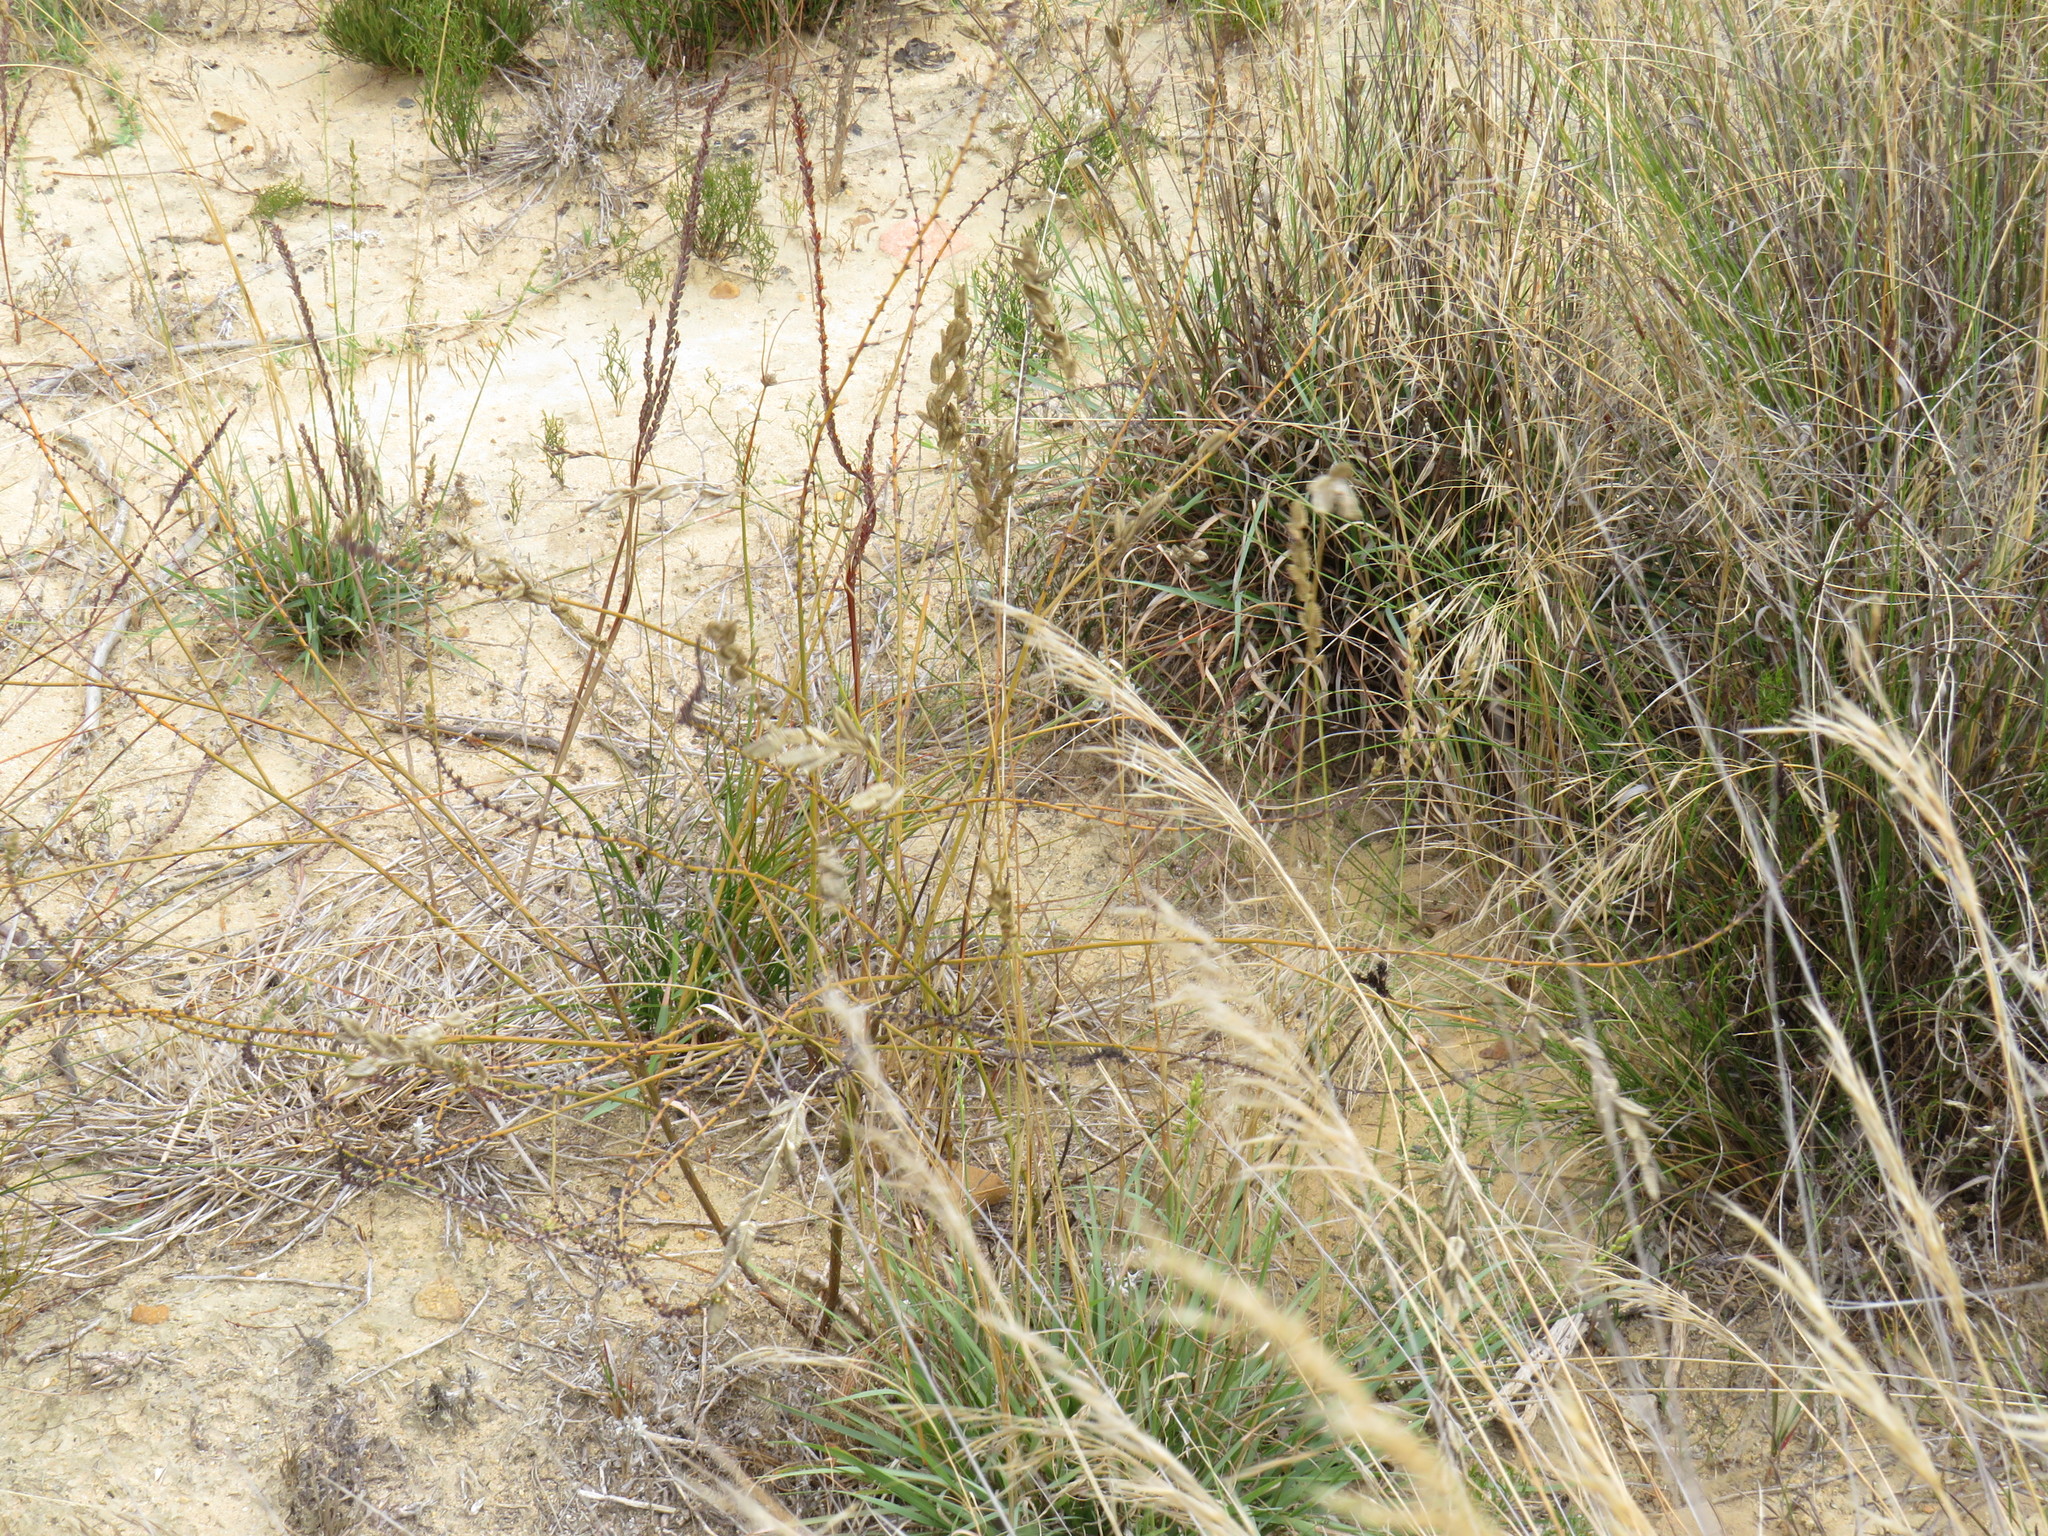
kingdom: Plantae
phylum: Tracheophyta
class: Liliopsida
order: Poales
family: Poaceae
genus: Eragrostis
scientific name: Eragrostis capensis
